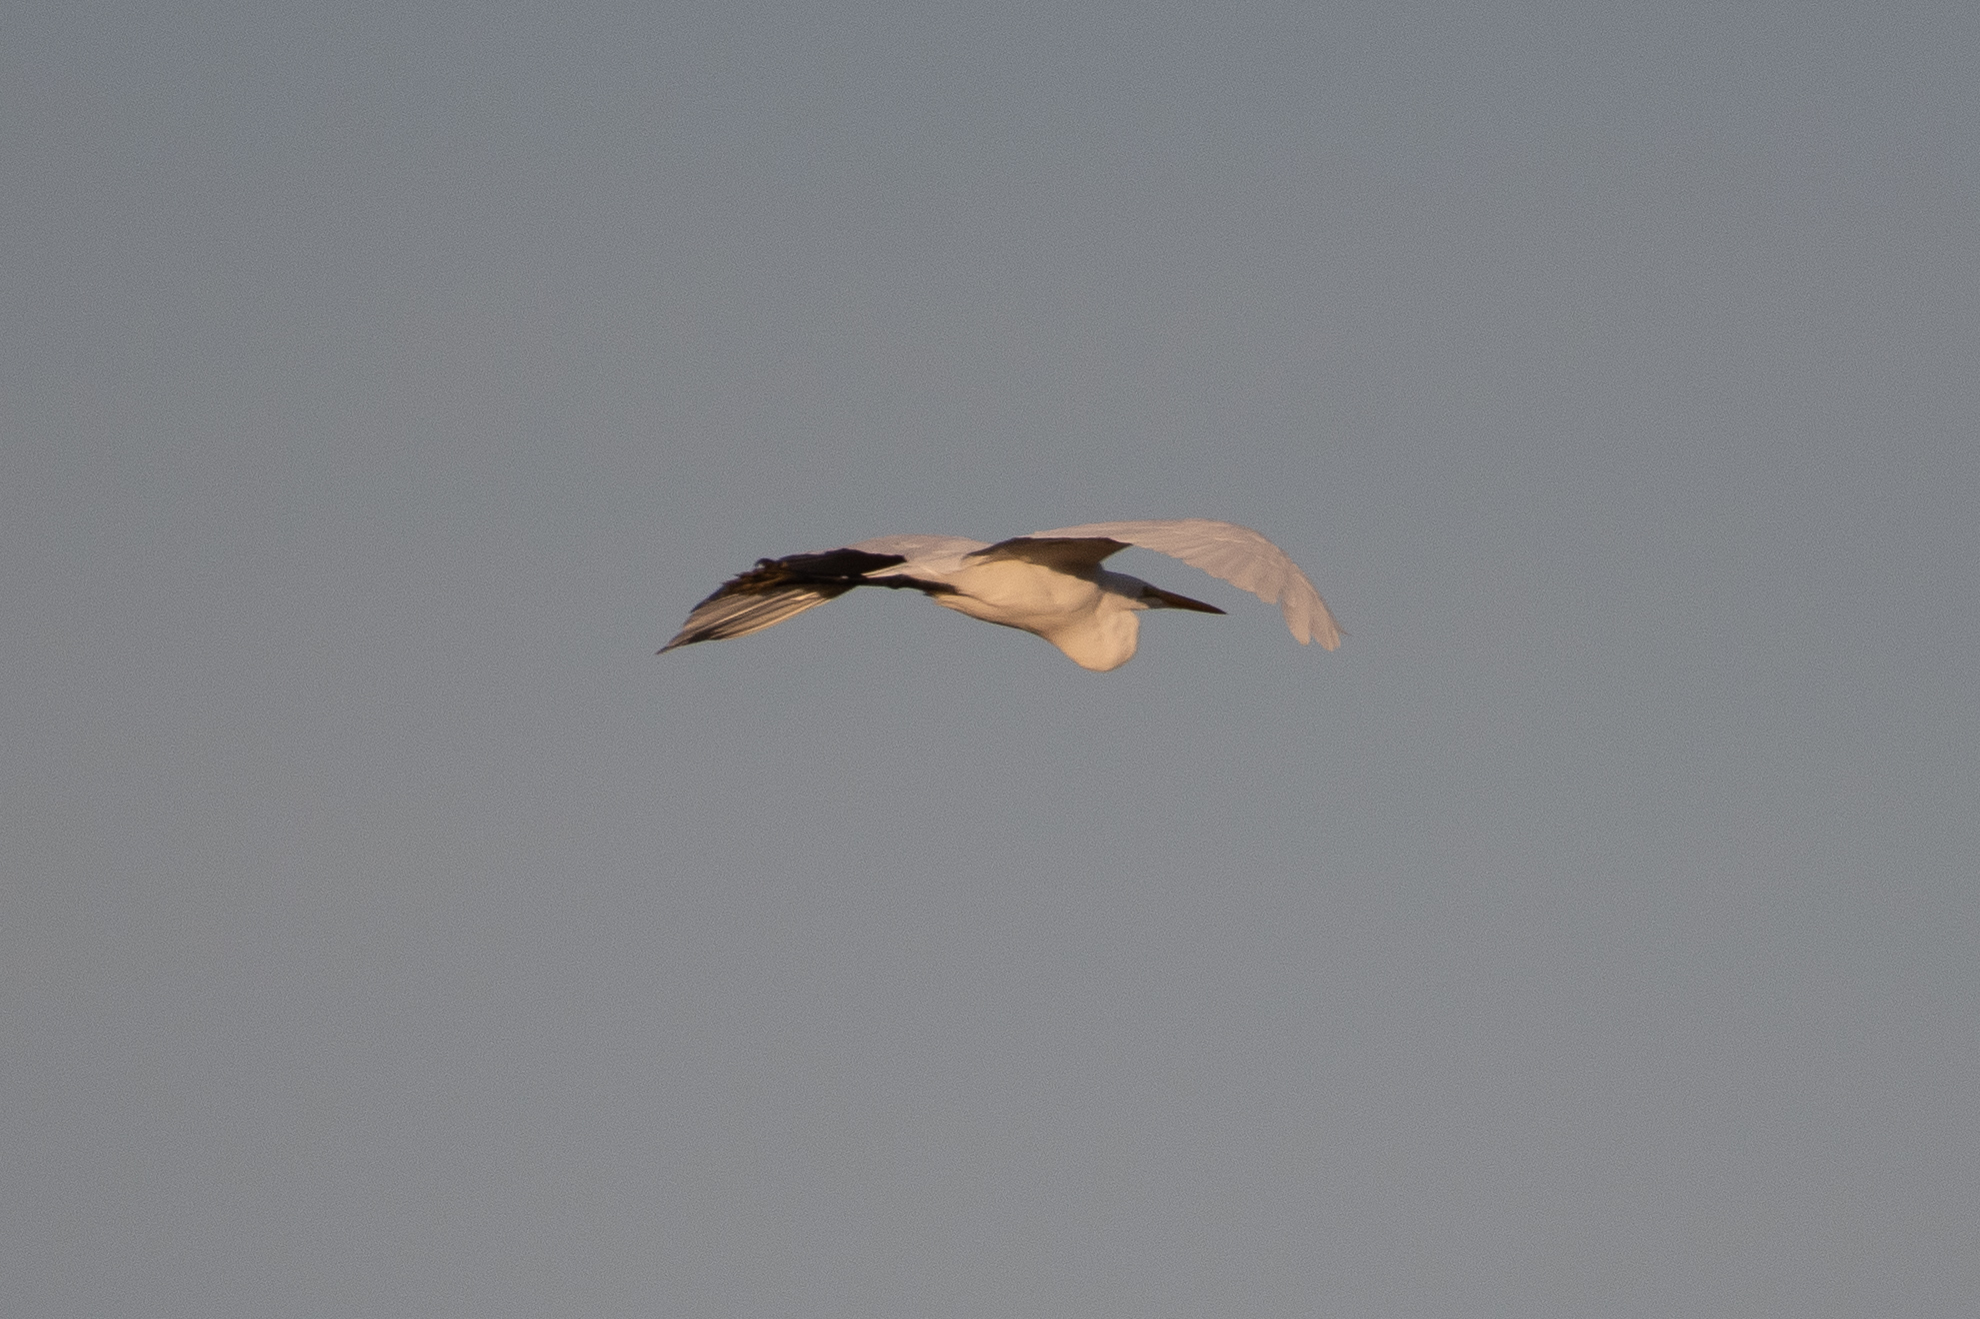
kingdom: Animalia
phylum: Chordata
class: Aves
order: Pelecaniformes
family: Ardeidae
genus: Ardea
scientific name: Ardea alba
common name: Great egret
